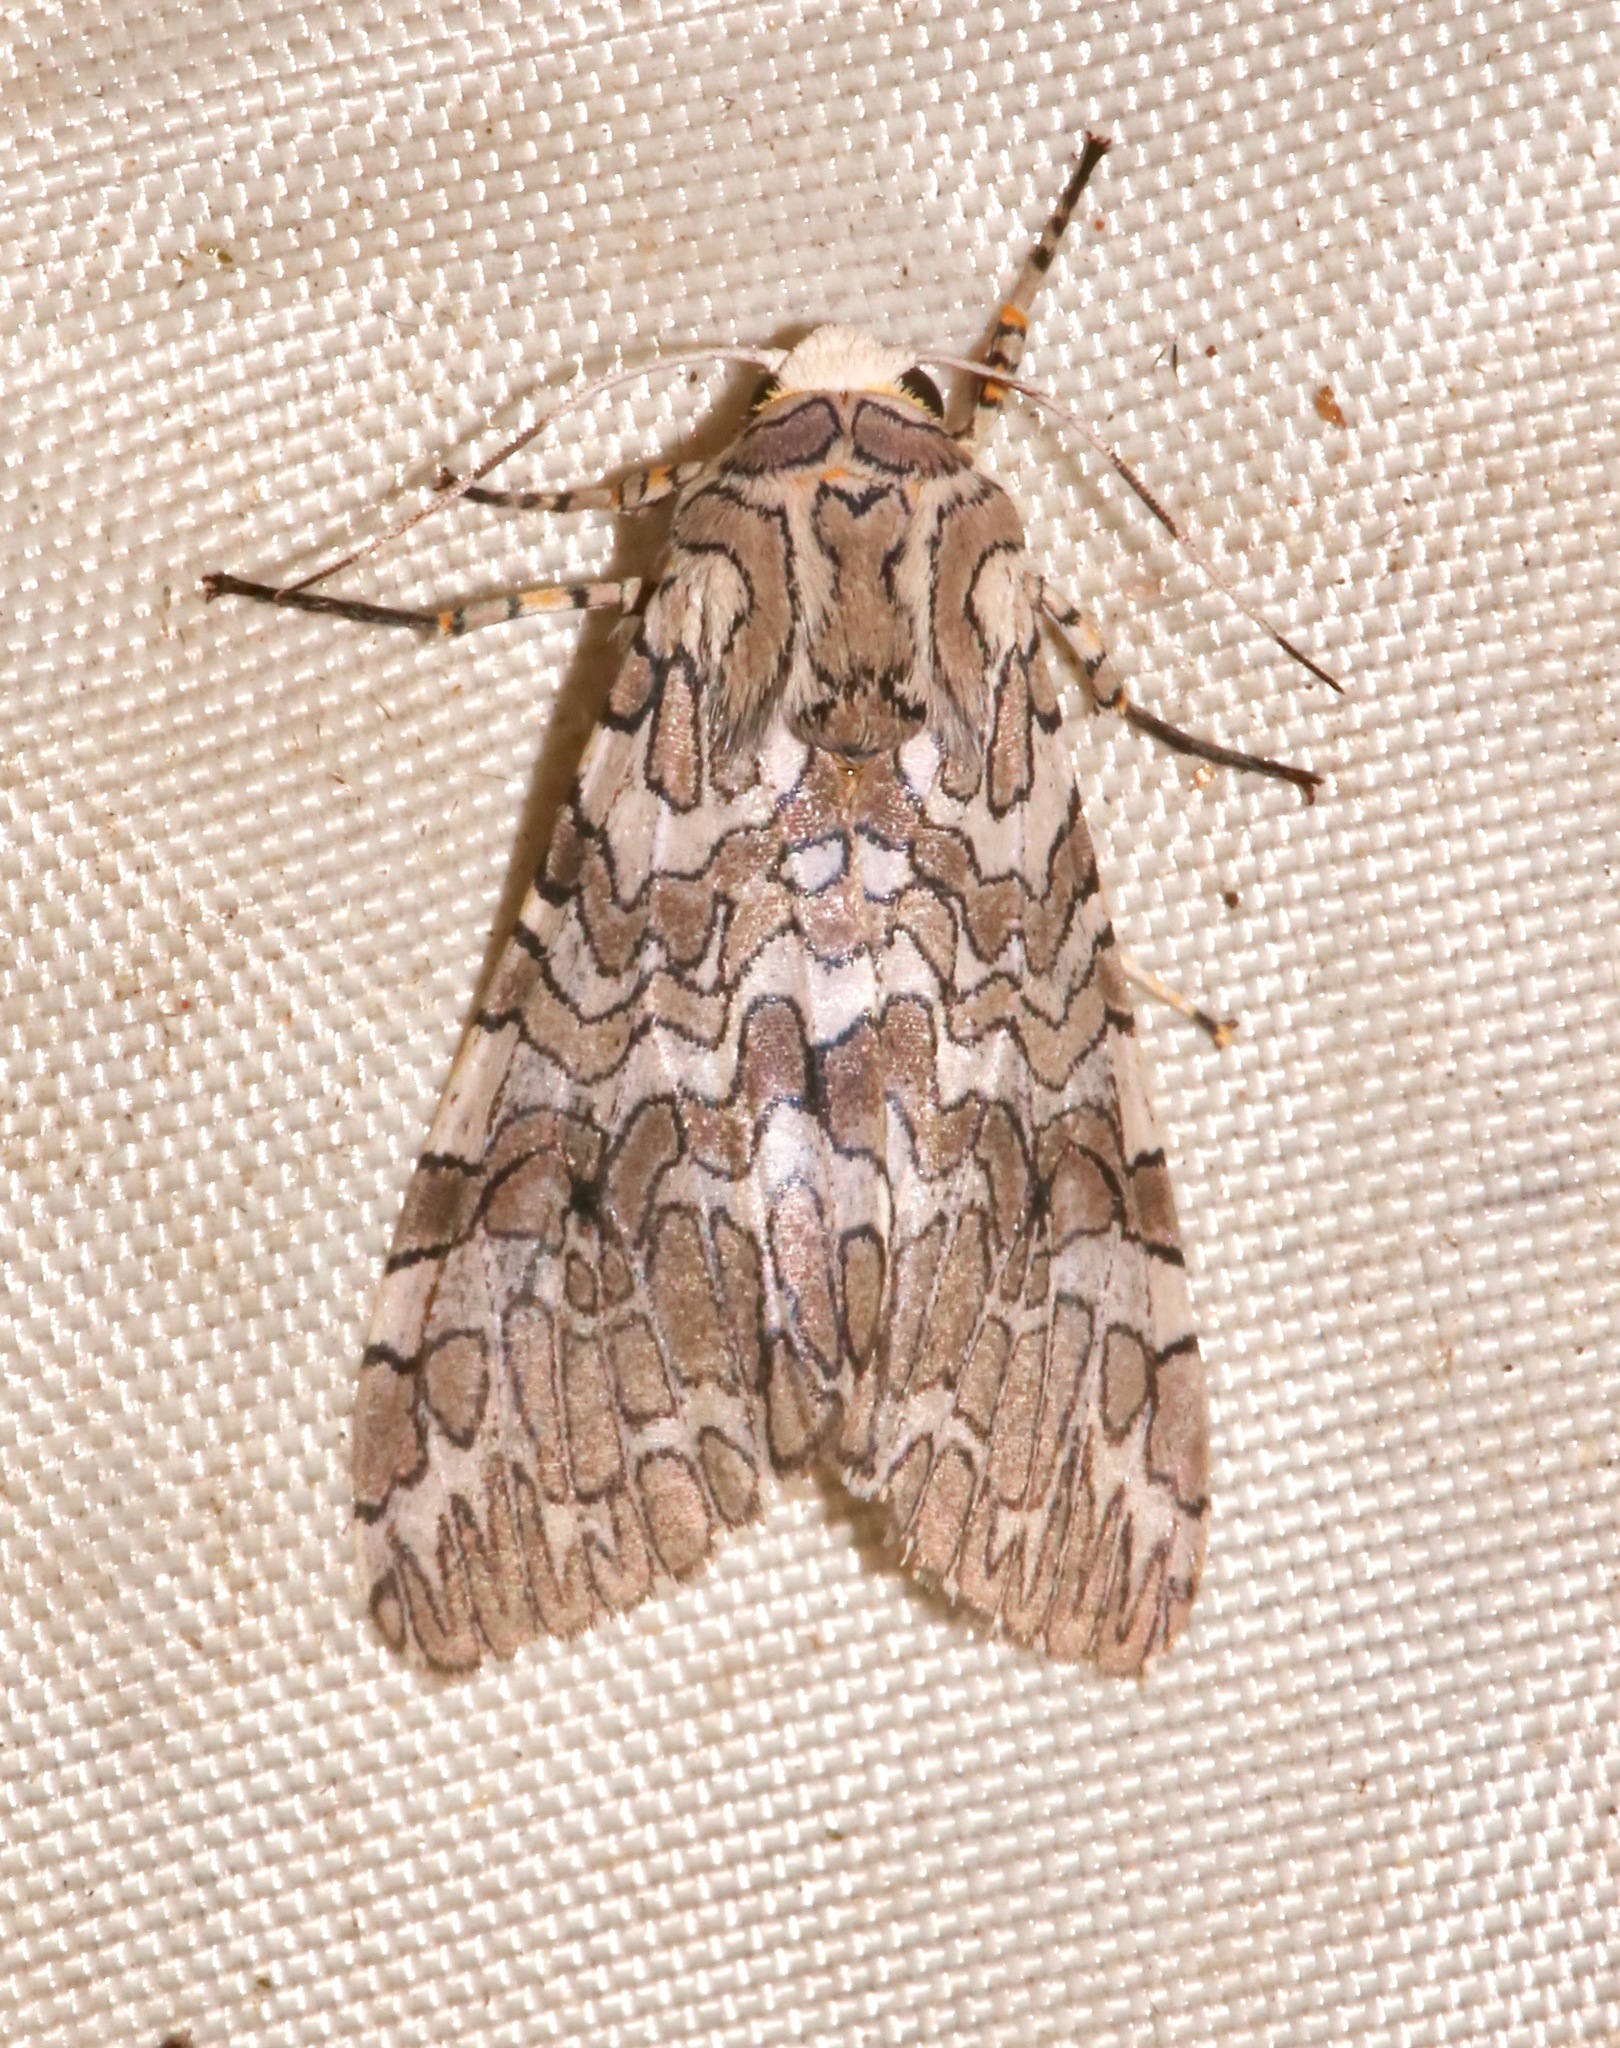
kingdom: Animalia
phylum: Arthropoda
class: Insecta
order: Lepidoptera
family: Erebidae
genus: Hypercompe
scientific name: Hypercompe suffusa
